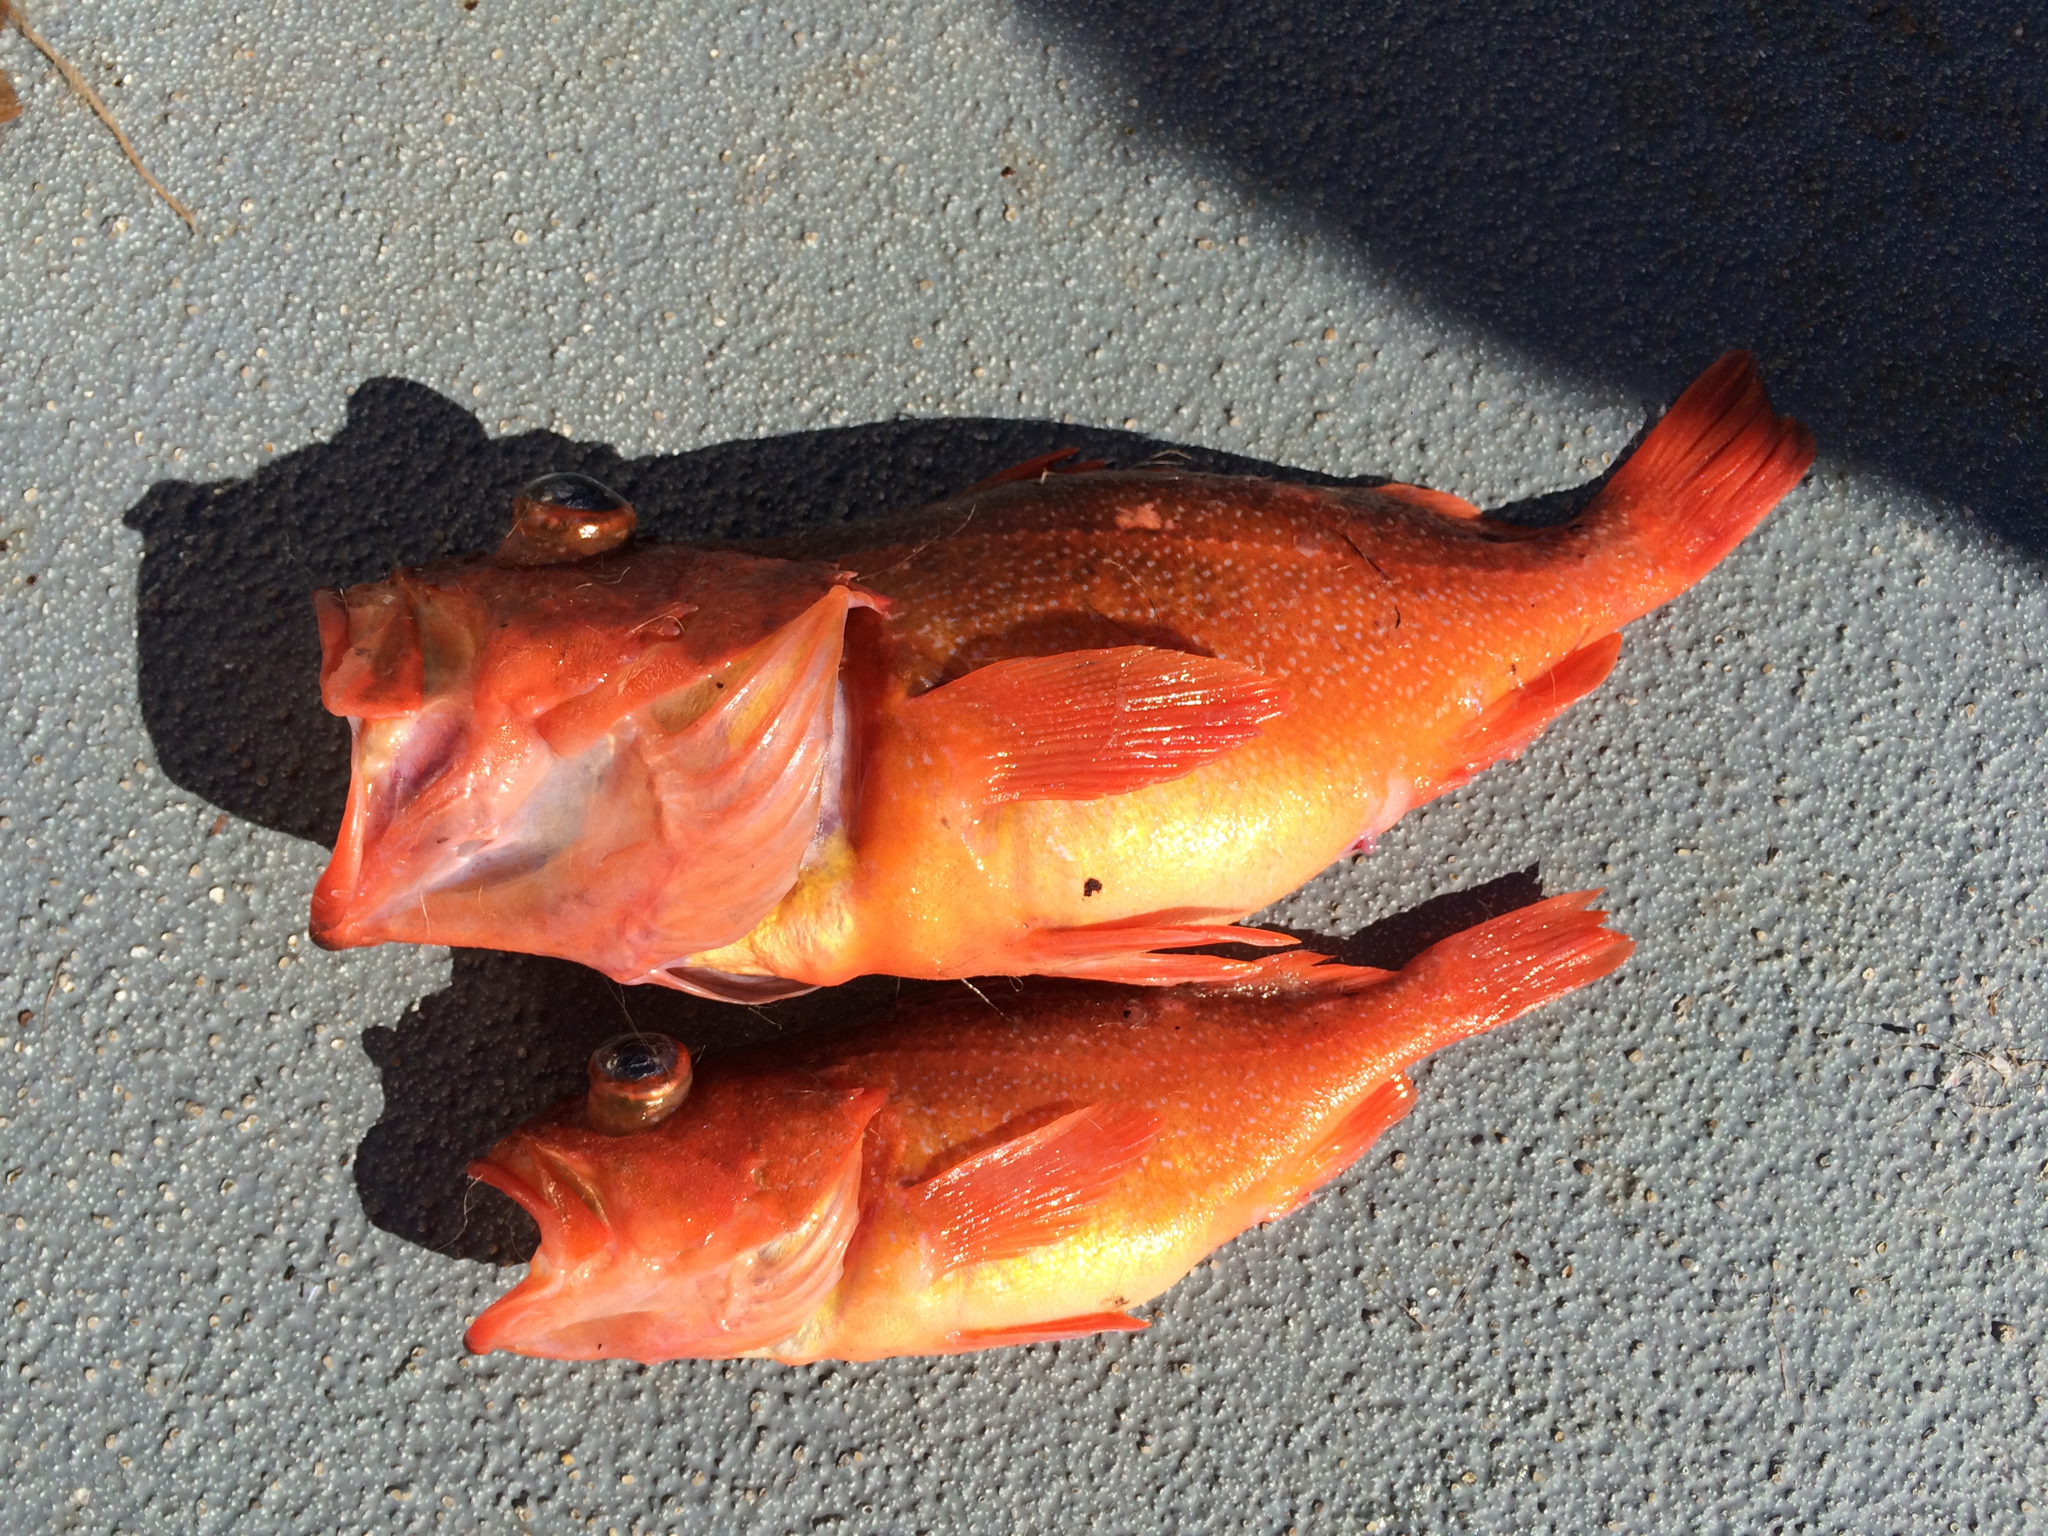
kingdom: Animalia
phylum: Chordata
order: Scorpaeniformes
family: Sebastidae
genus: Sebastes
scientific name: Sebastes constellatus
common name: Starry rockfish
